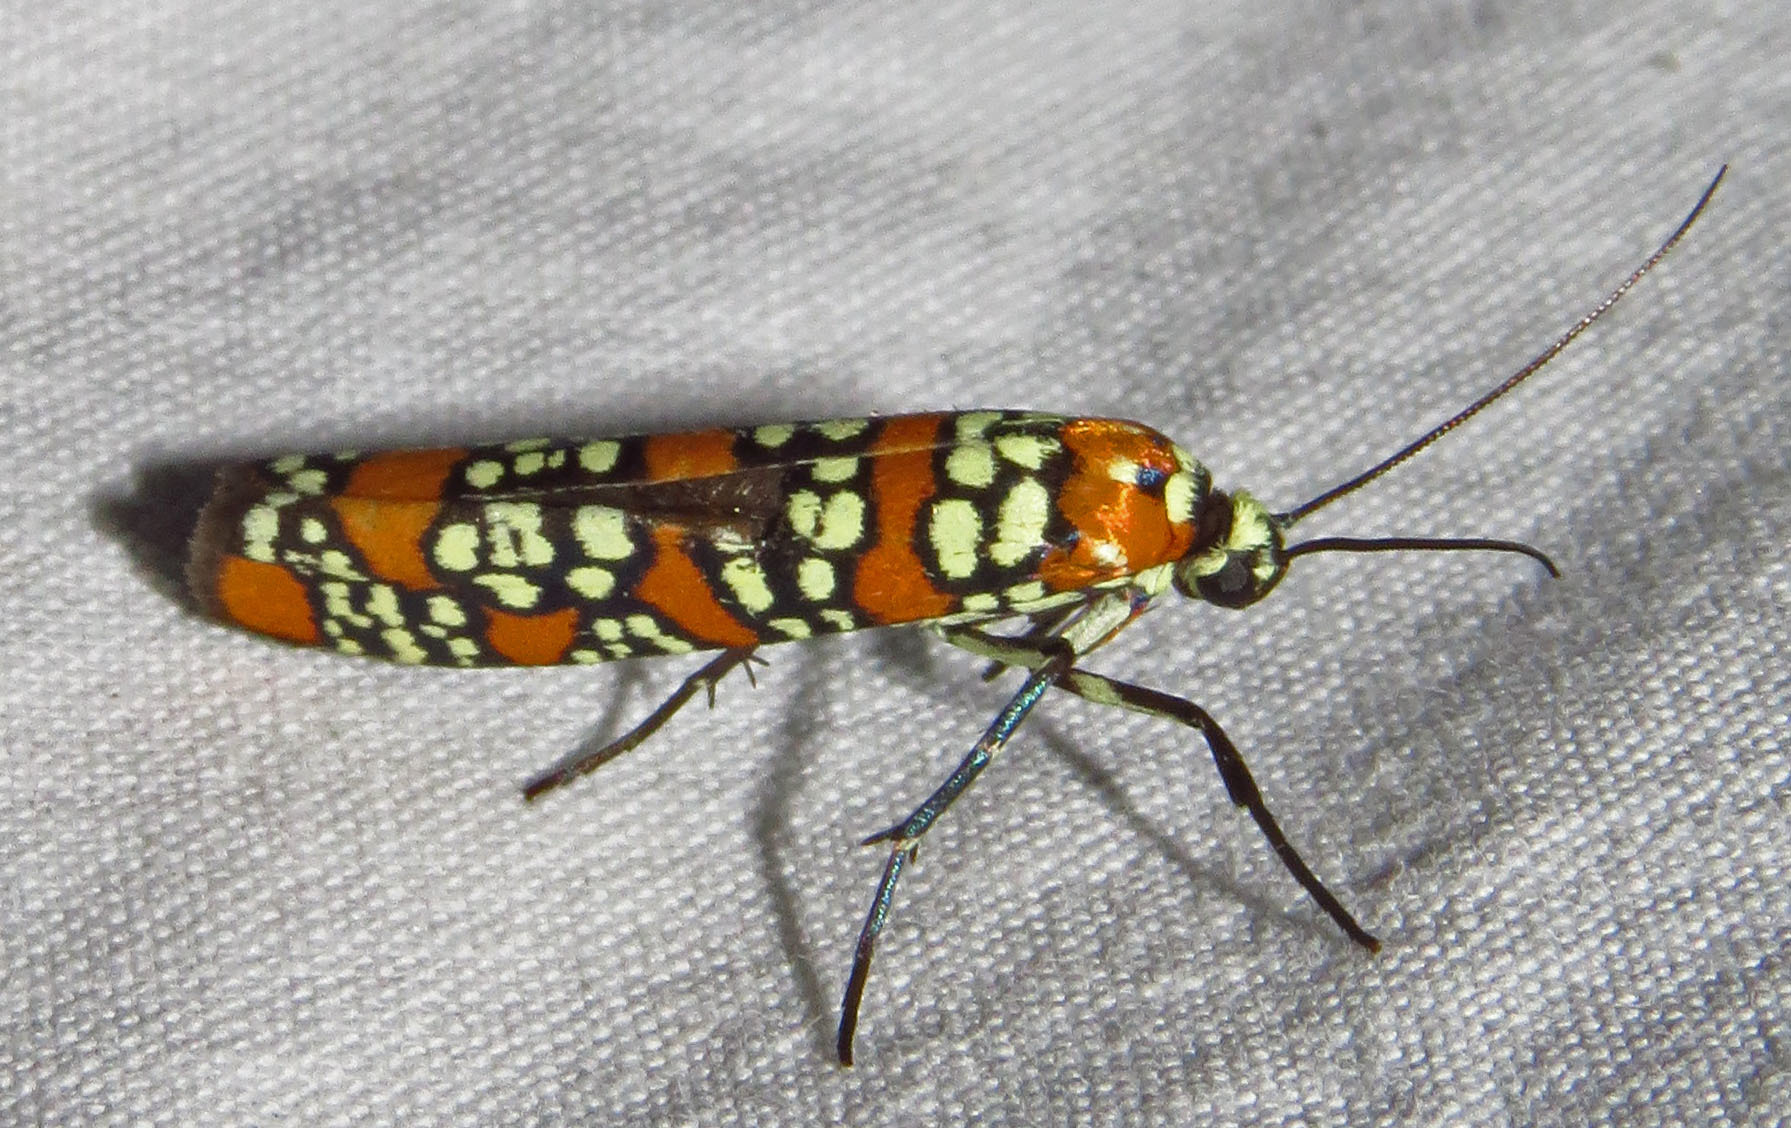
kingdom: Animalia
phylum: Arthropoda
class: Insecta
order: Lepidoptera
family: Attevidae
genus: Atteva
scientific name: Atteva punctella
